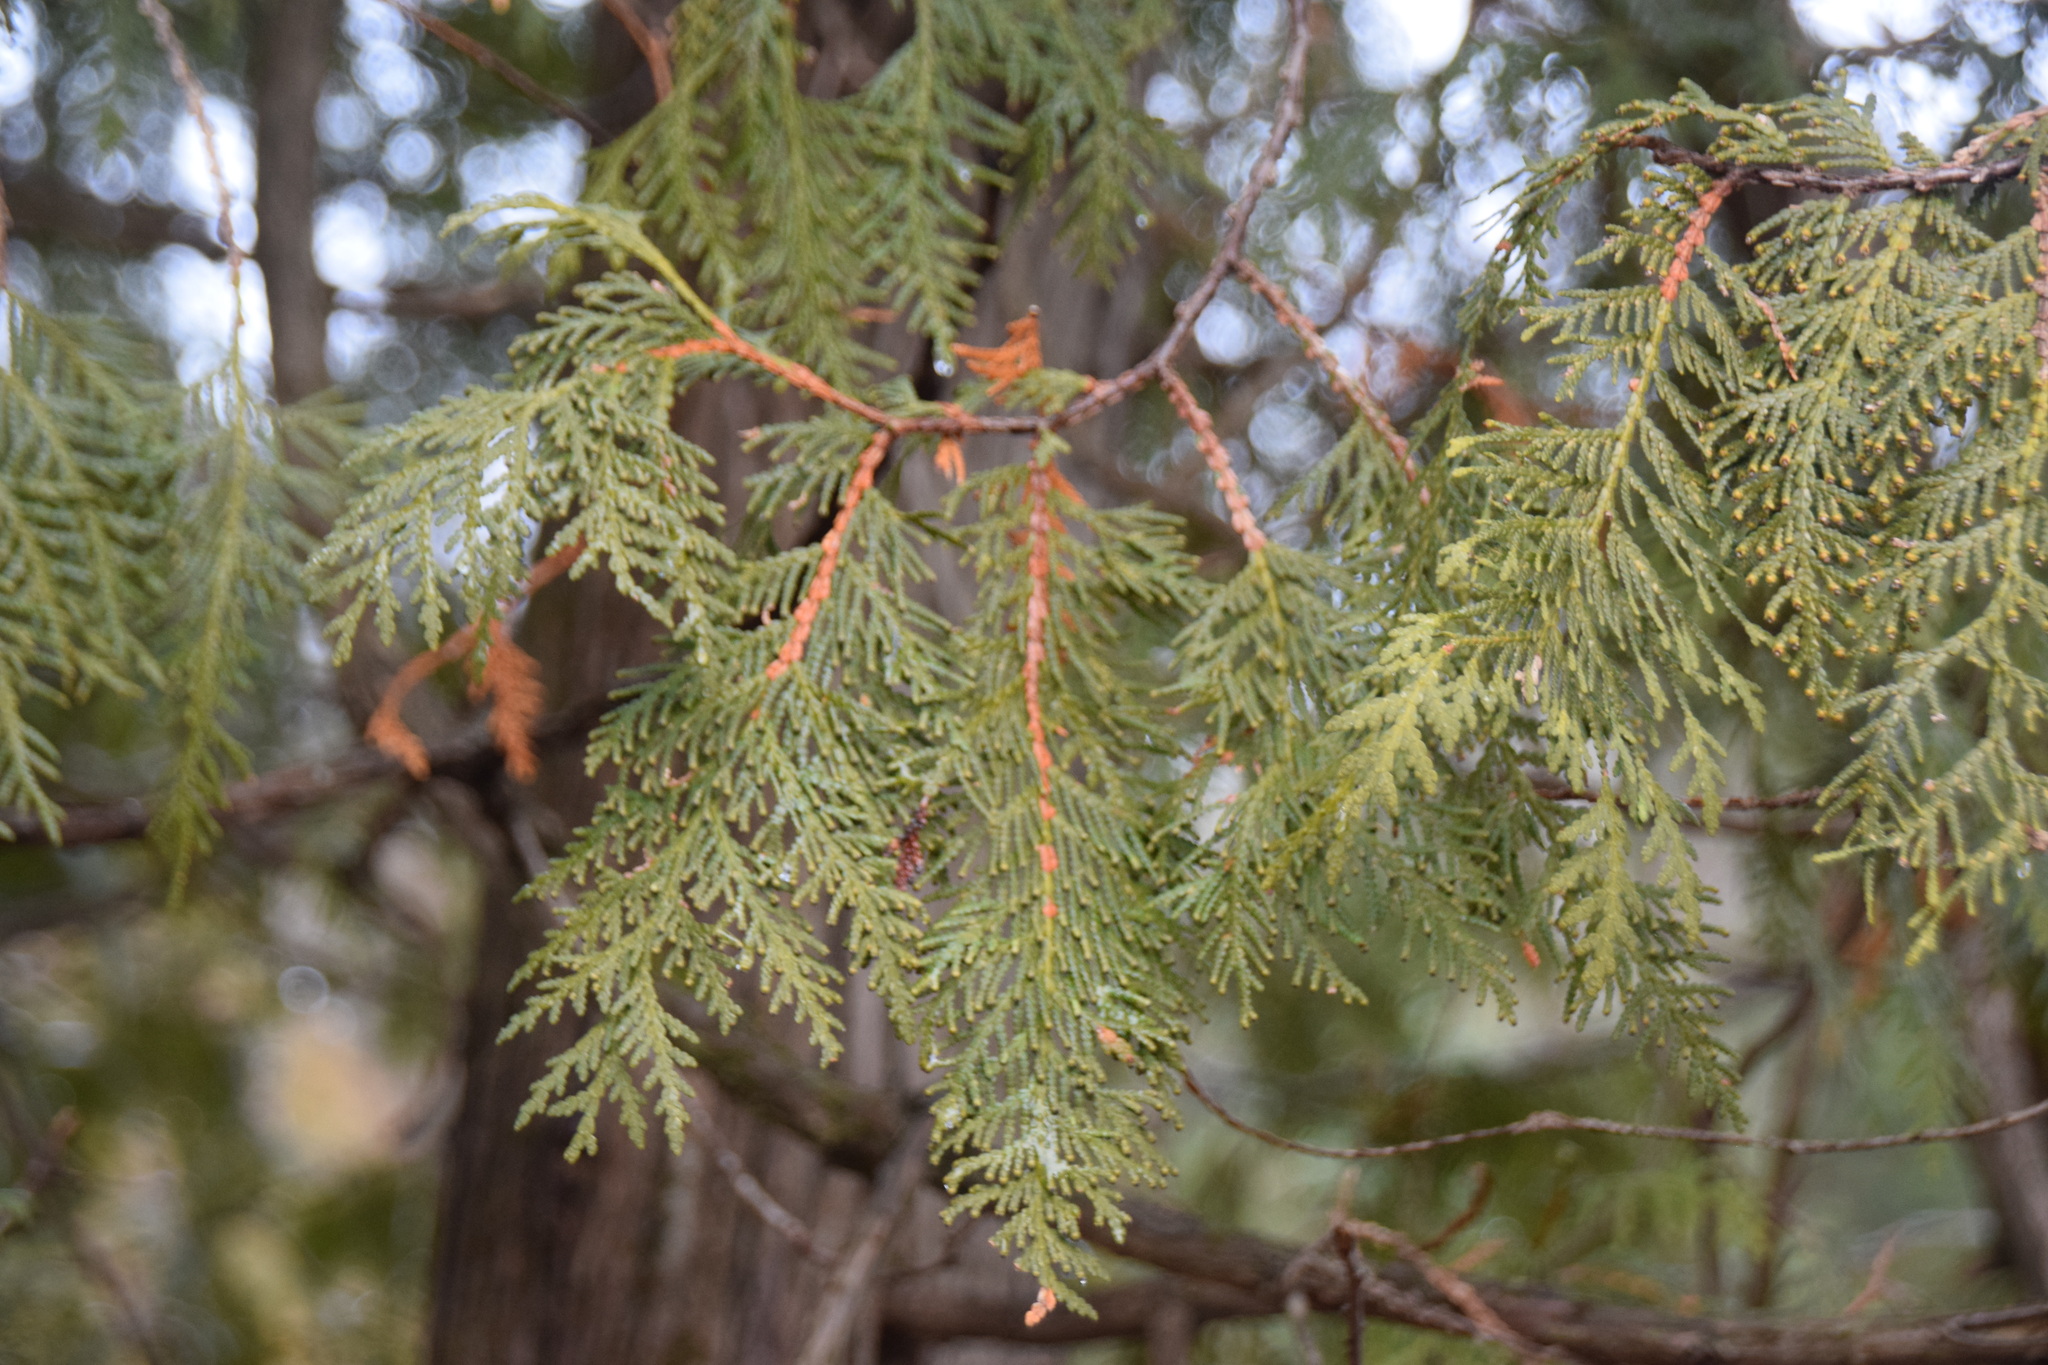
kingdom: Plantae
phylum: Tracheophyta
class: Pinopsida
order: Pinales
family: Cupressaceae
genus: Thuja
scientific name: Thuja occidentalis
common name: Northern white-cedar
